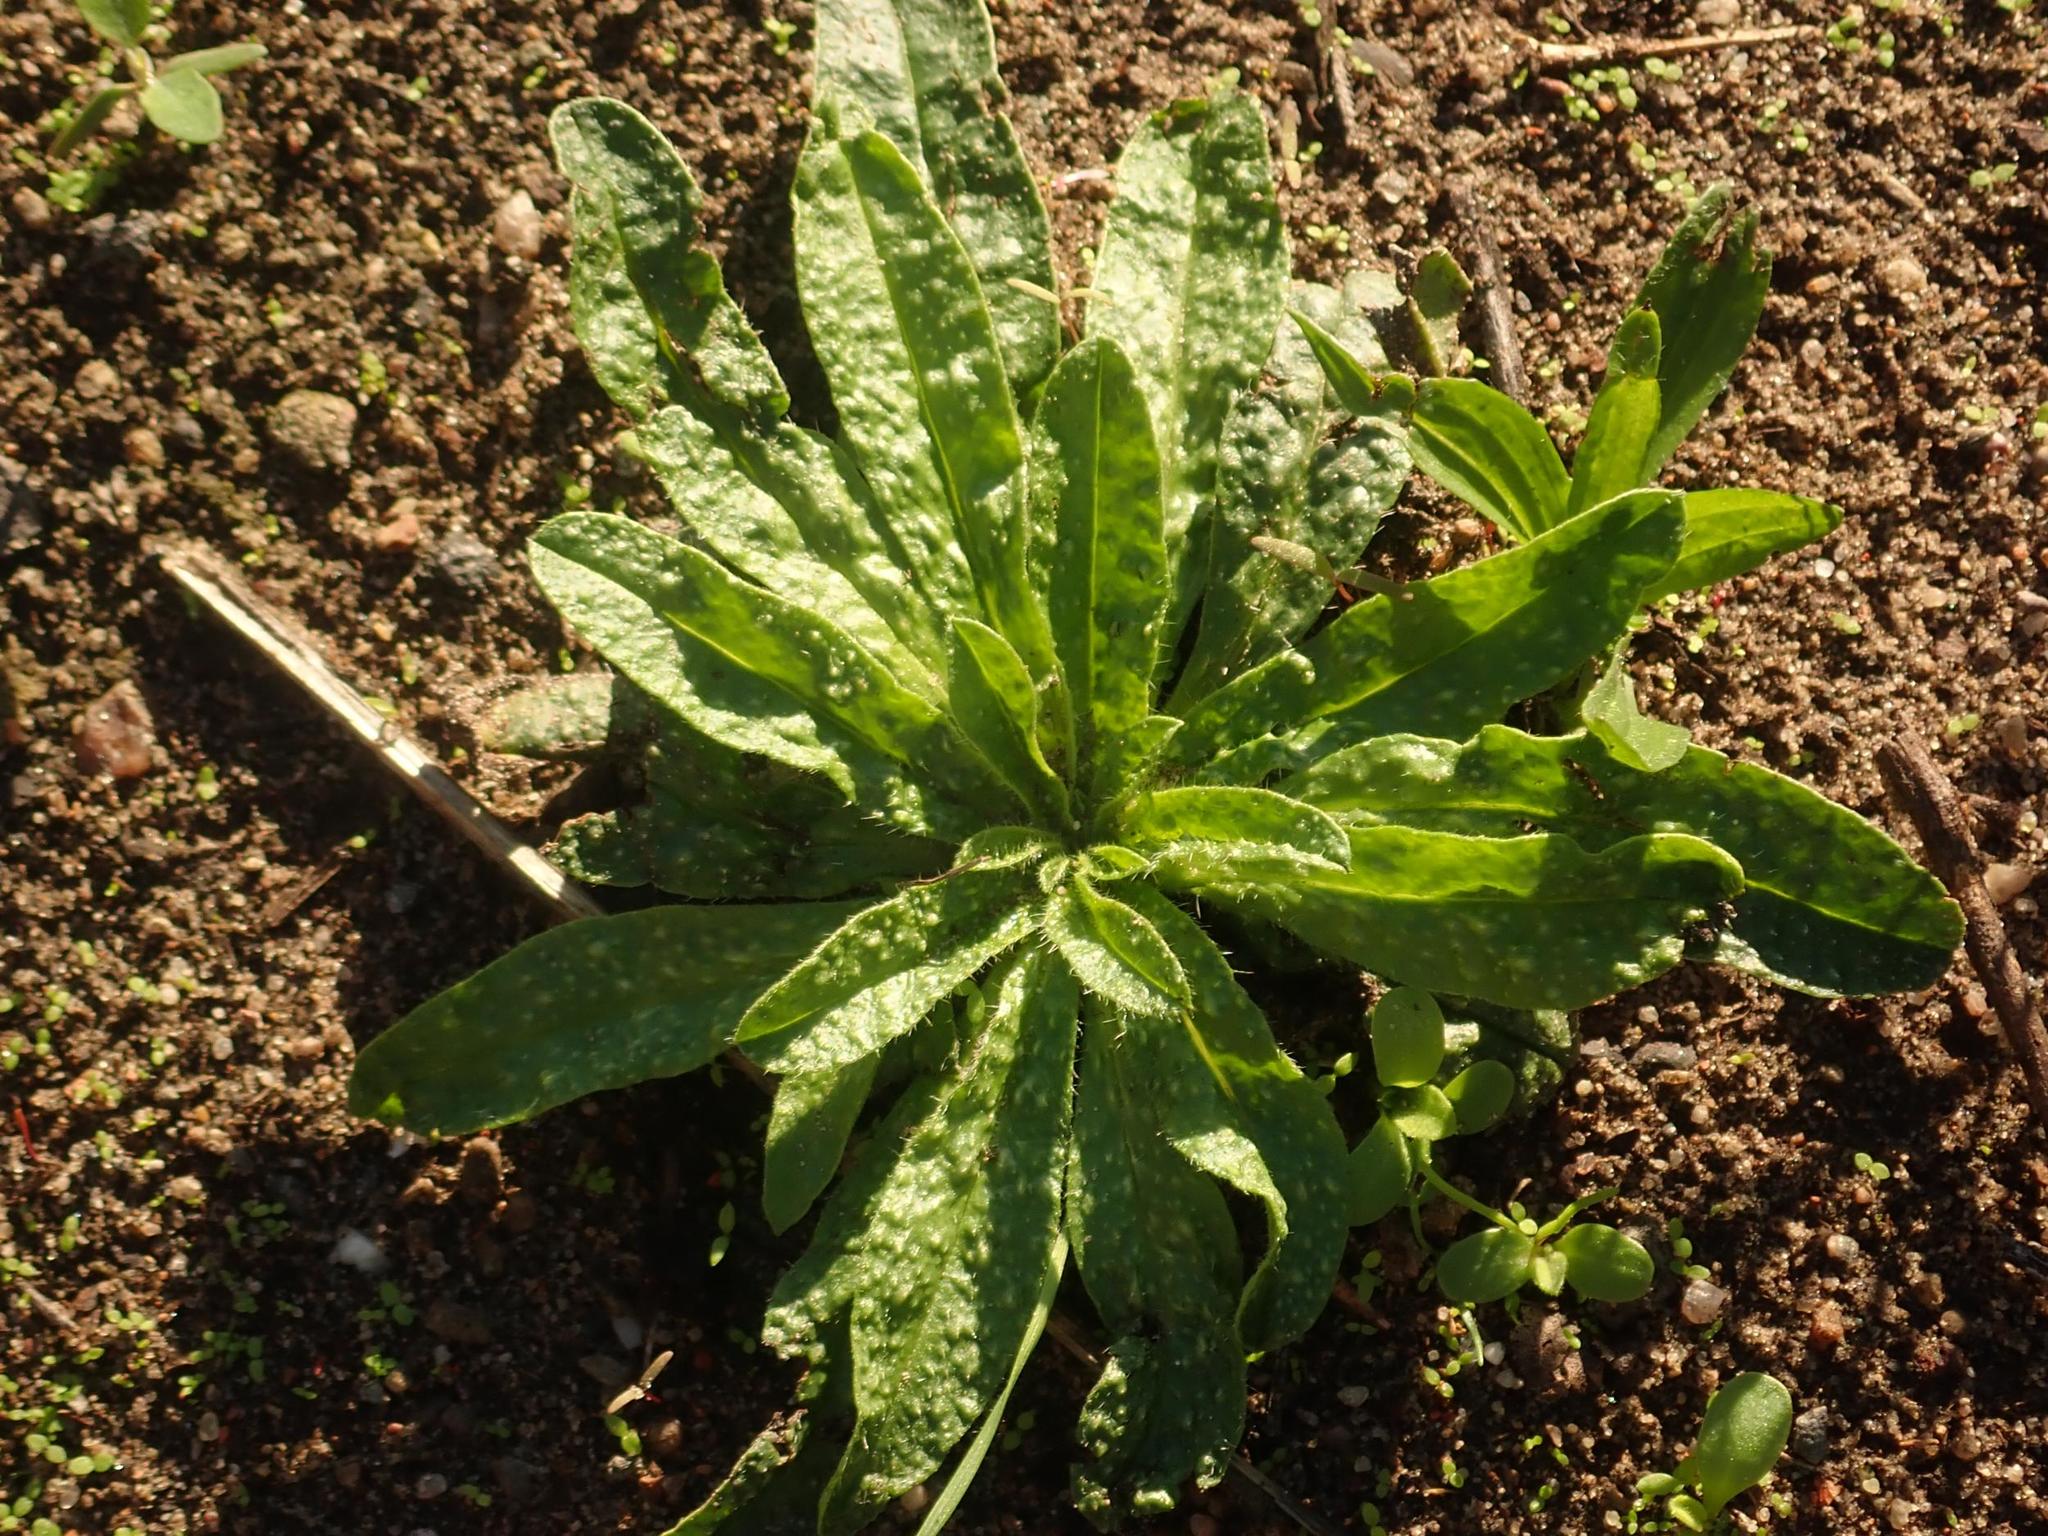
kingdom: Plantae
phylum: Tracheophyta
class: Magnoliopsida
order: Boraginales
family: Boraginaceae
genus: Echium
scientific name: Echium vulgare
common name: Common viper's bugloss
